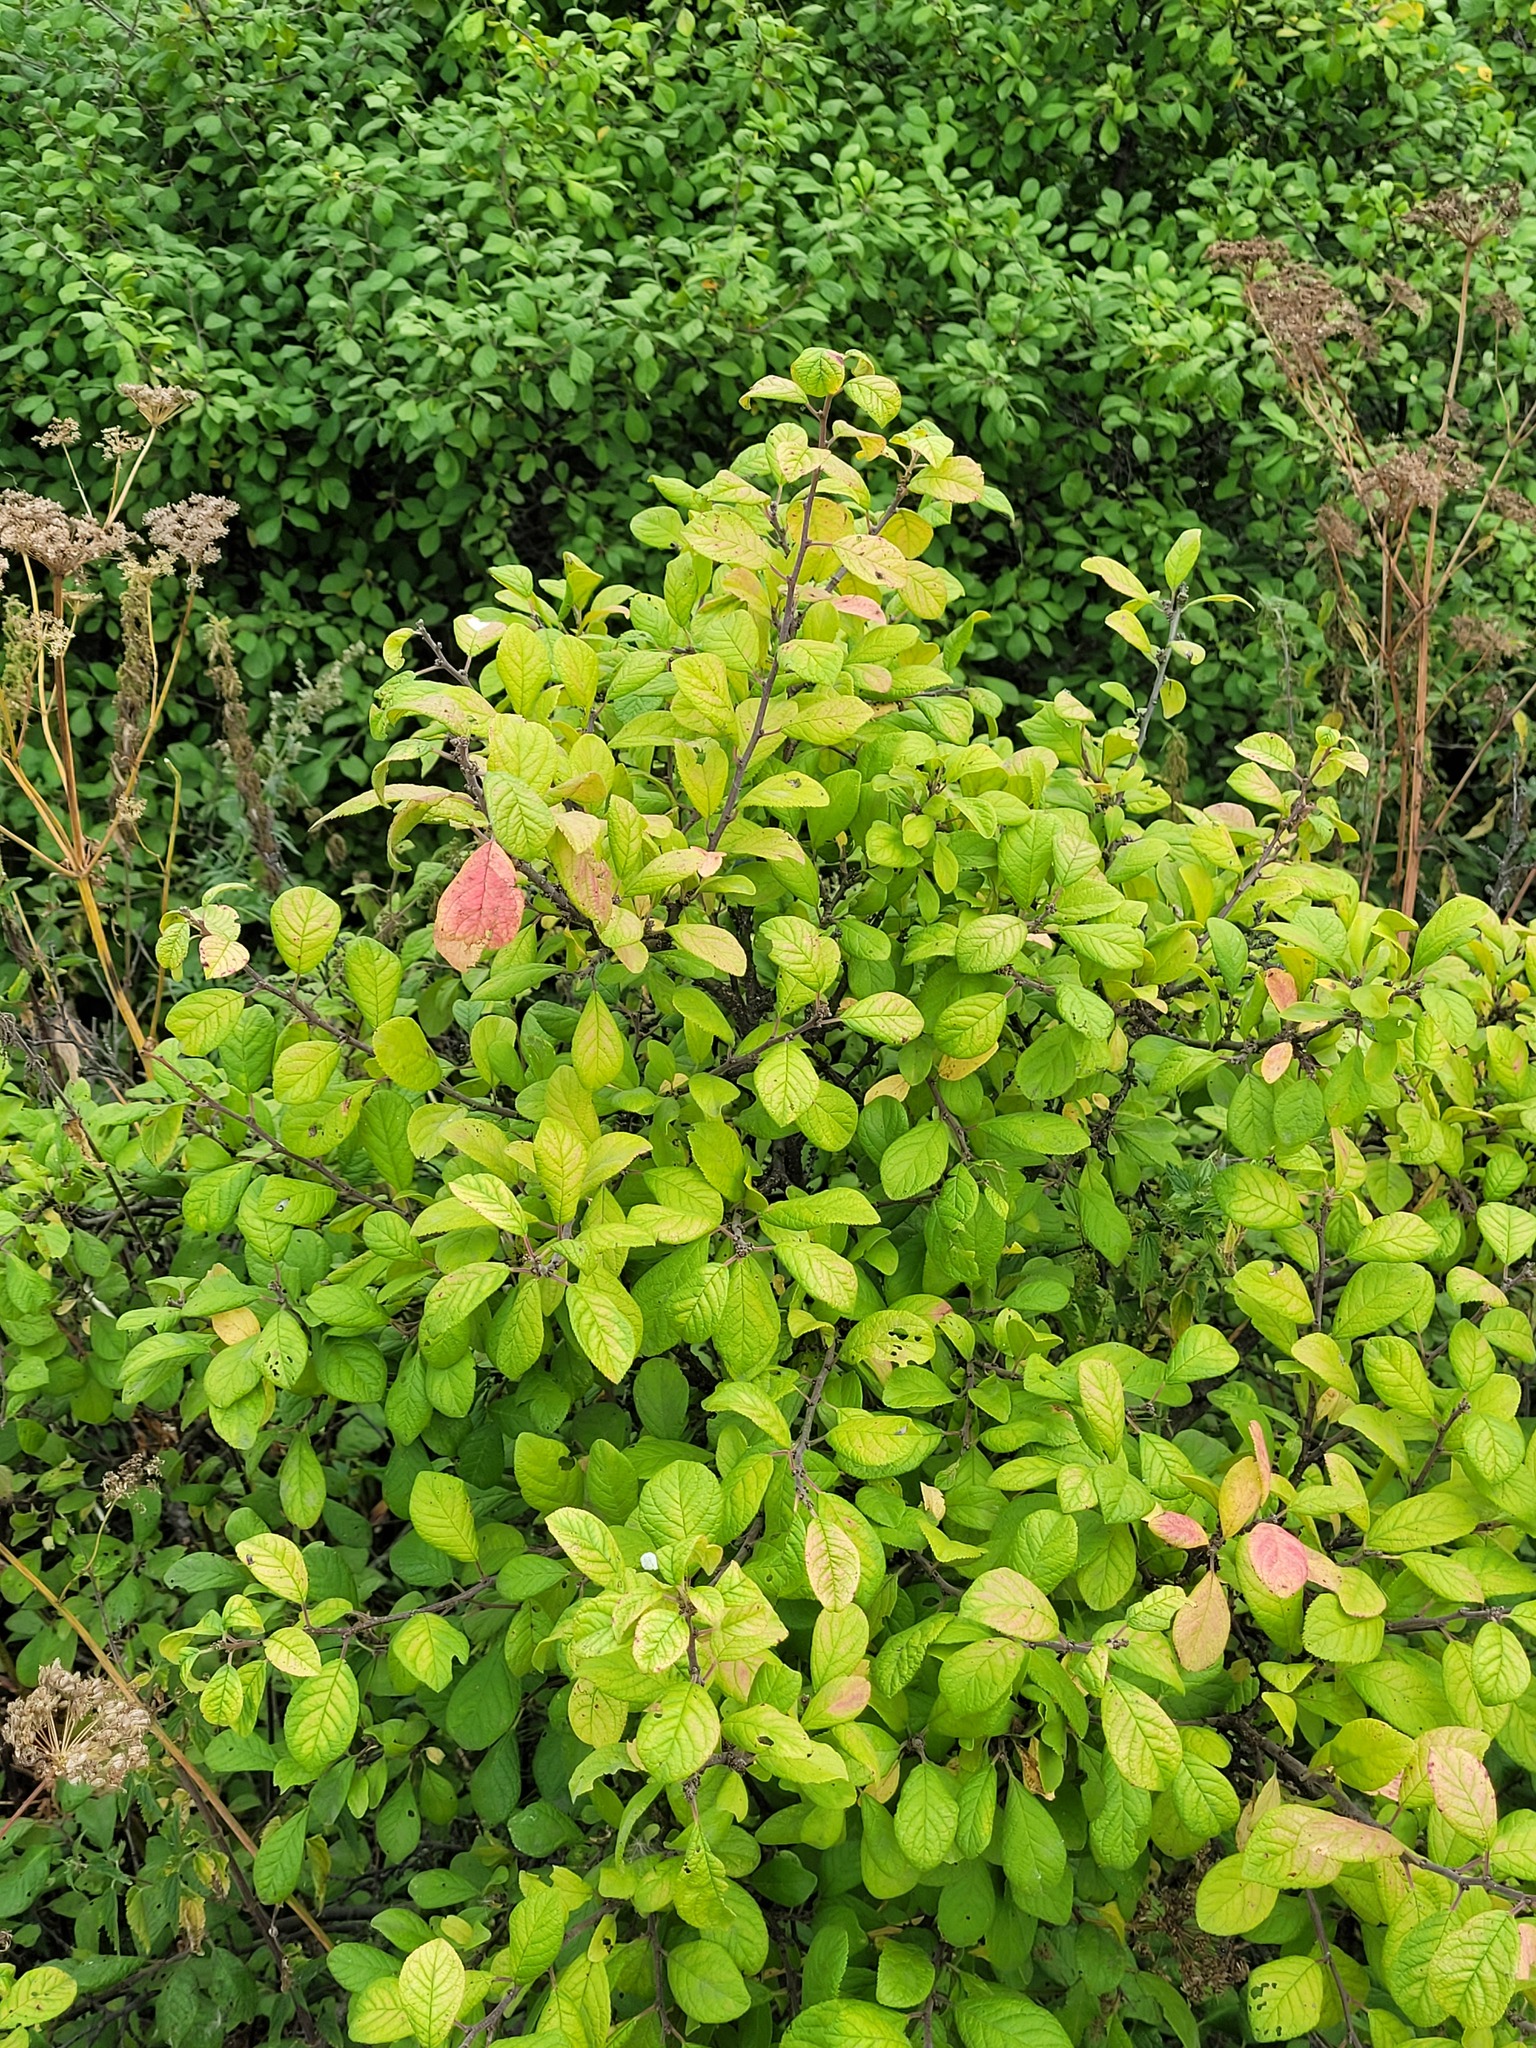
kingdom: Plantae
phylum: Tracheophyta
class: Magnoliopsida
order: Rosales
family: Rosaceae
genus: Prunus
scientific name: Prunus spinosa
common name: Blackthorn
